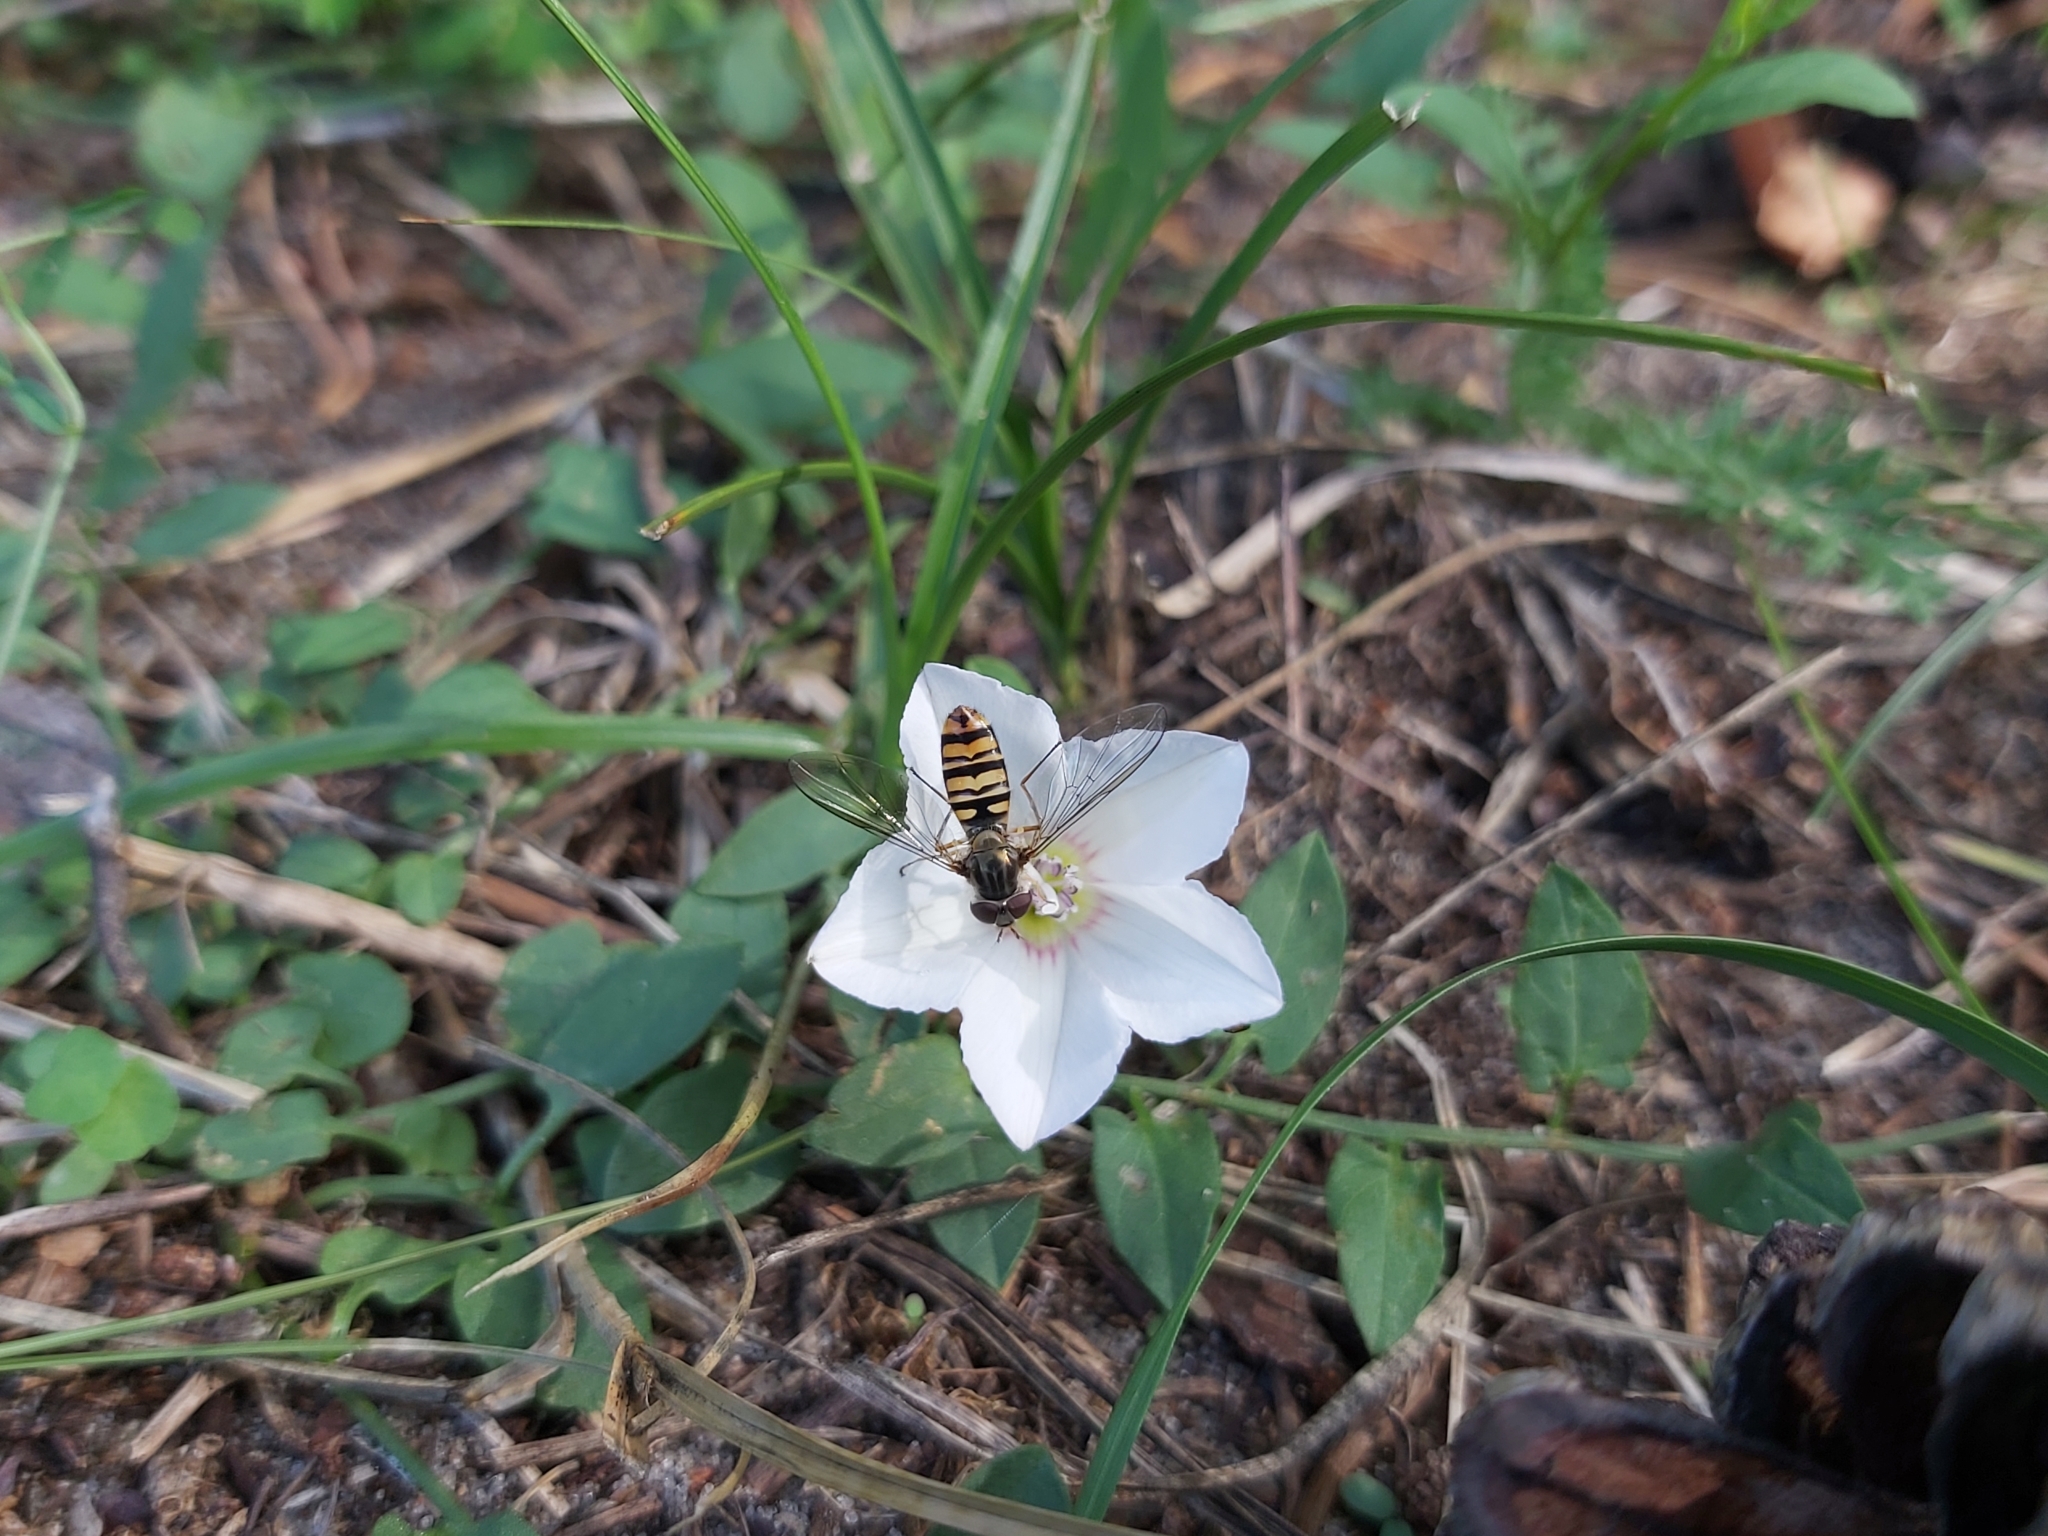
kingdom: Animalia
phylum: Arthropoda
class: Insecta
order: Diptera
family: Syrphidae
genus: Episyrphus
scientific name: Episyrphus balteatus
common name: Marmalade hoverfly
